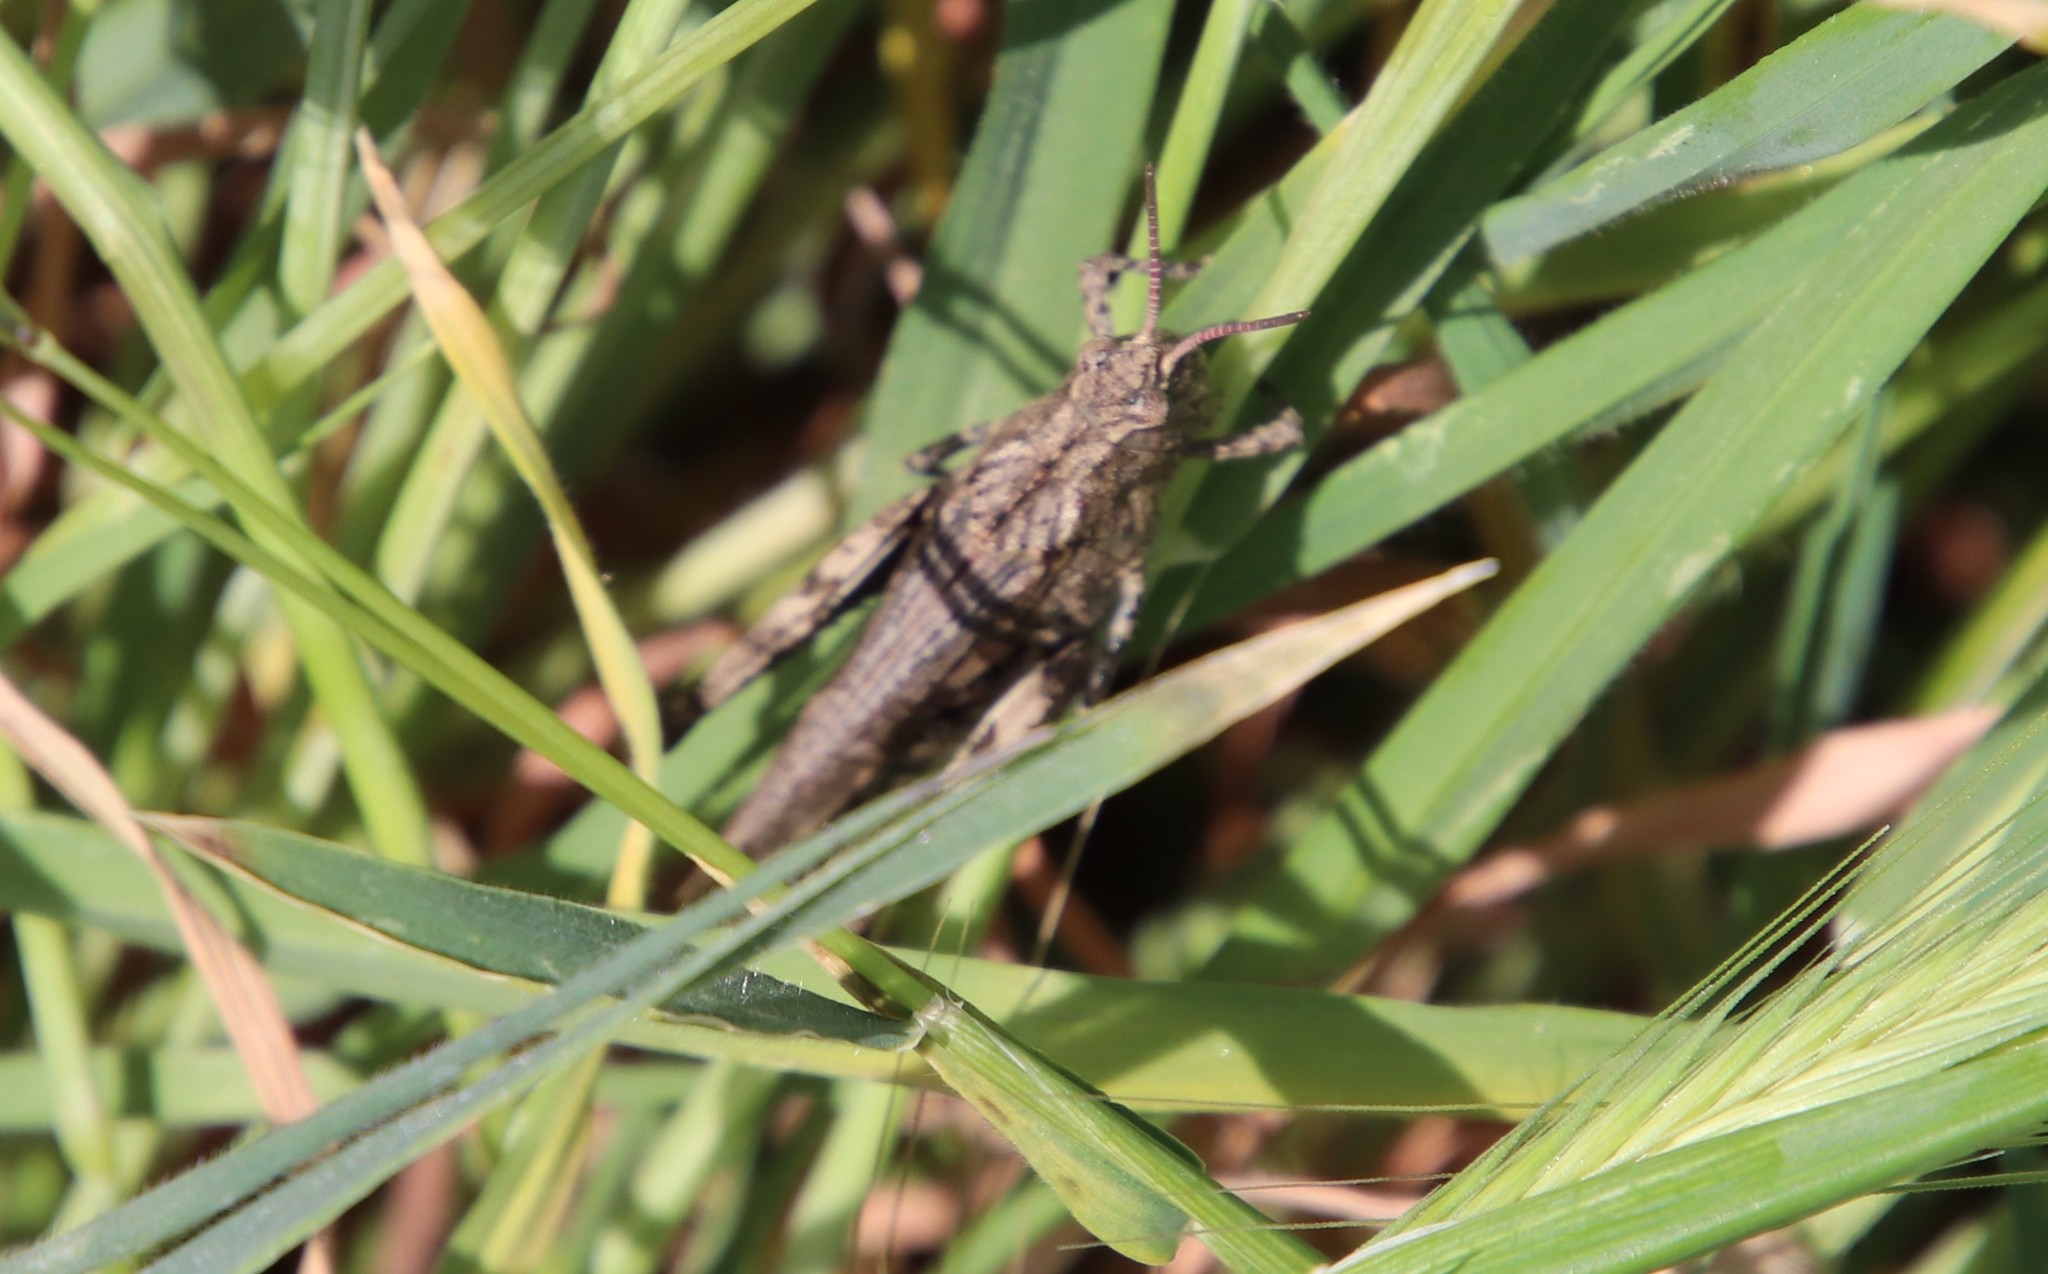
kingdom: Animalia
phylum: Arthropoda
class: Insecta
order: Orthoptera
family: Acrididae
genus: Chimarocephala
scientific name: Chimarocephala pacifica
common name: Painted meadow grasshopper
